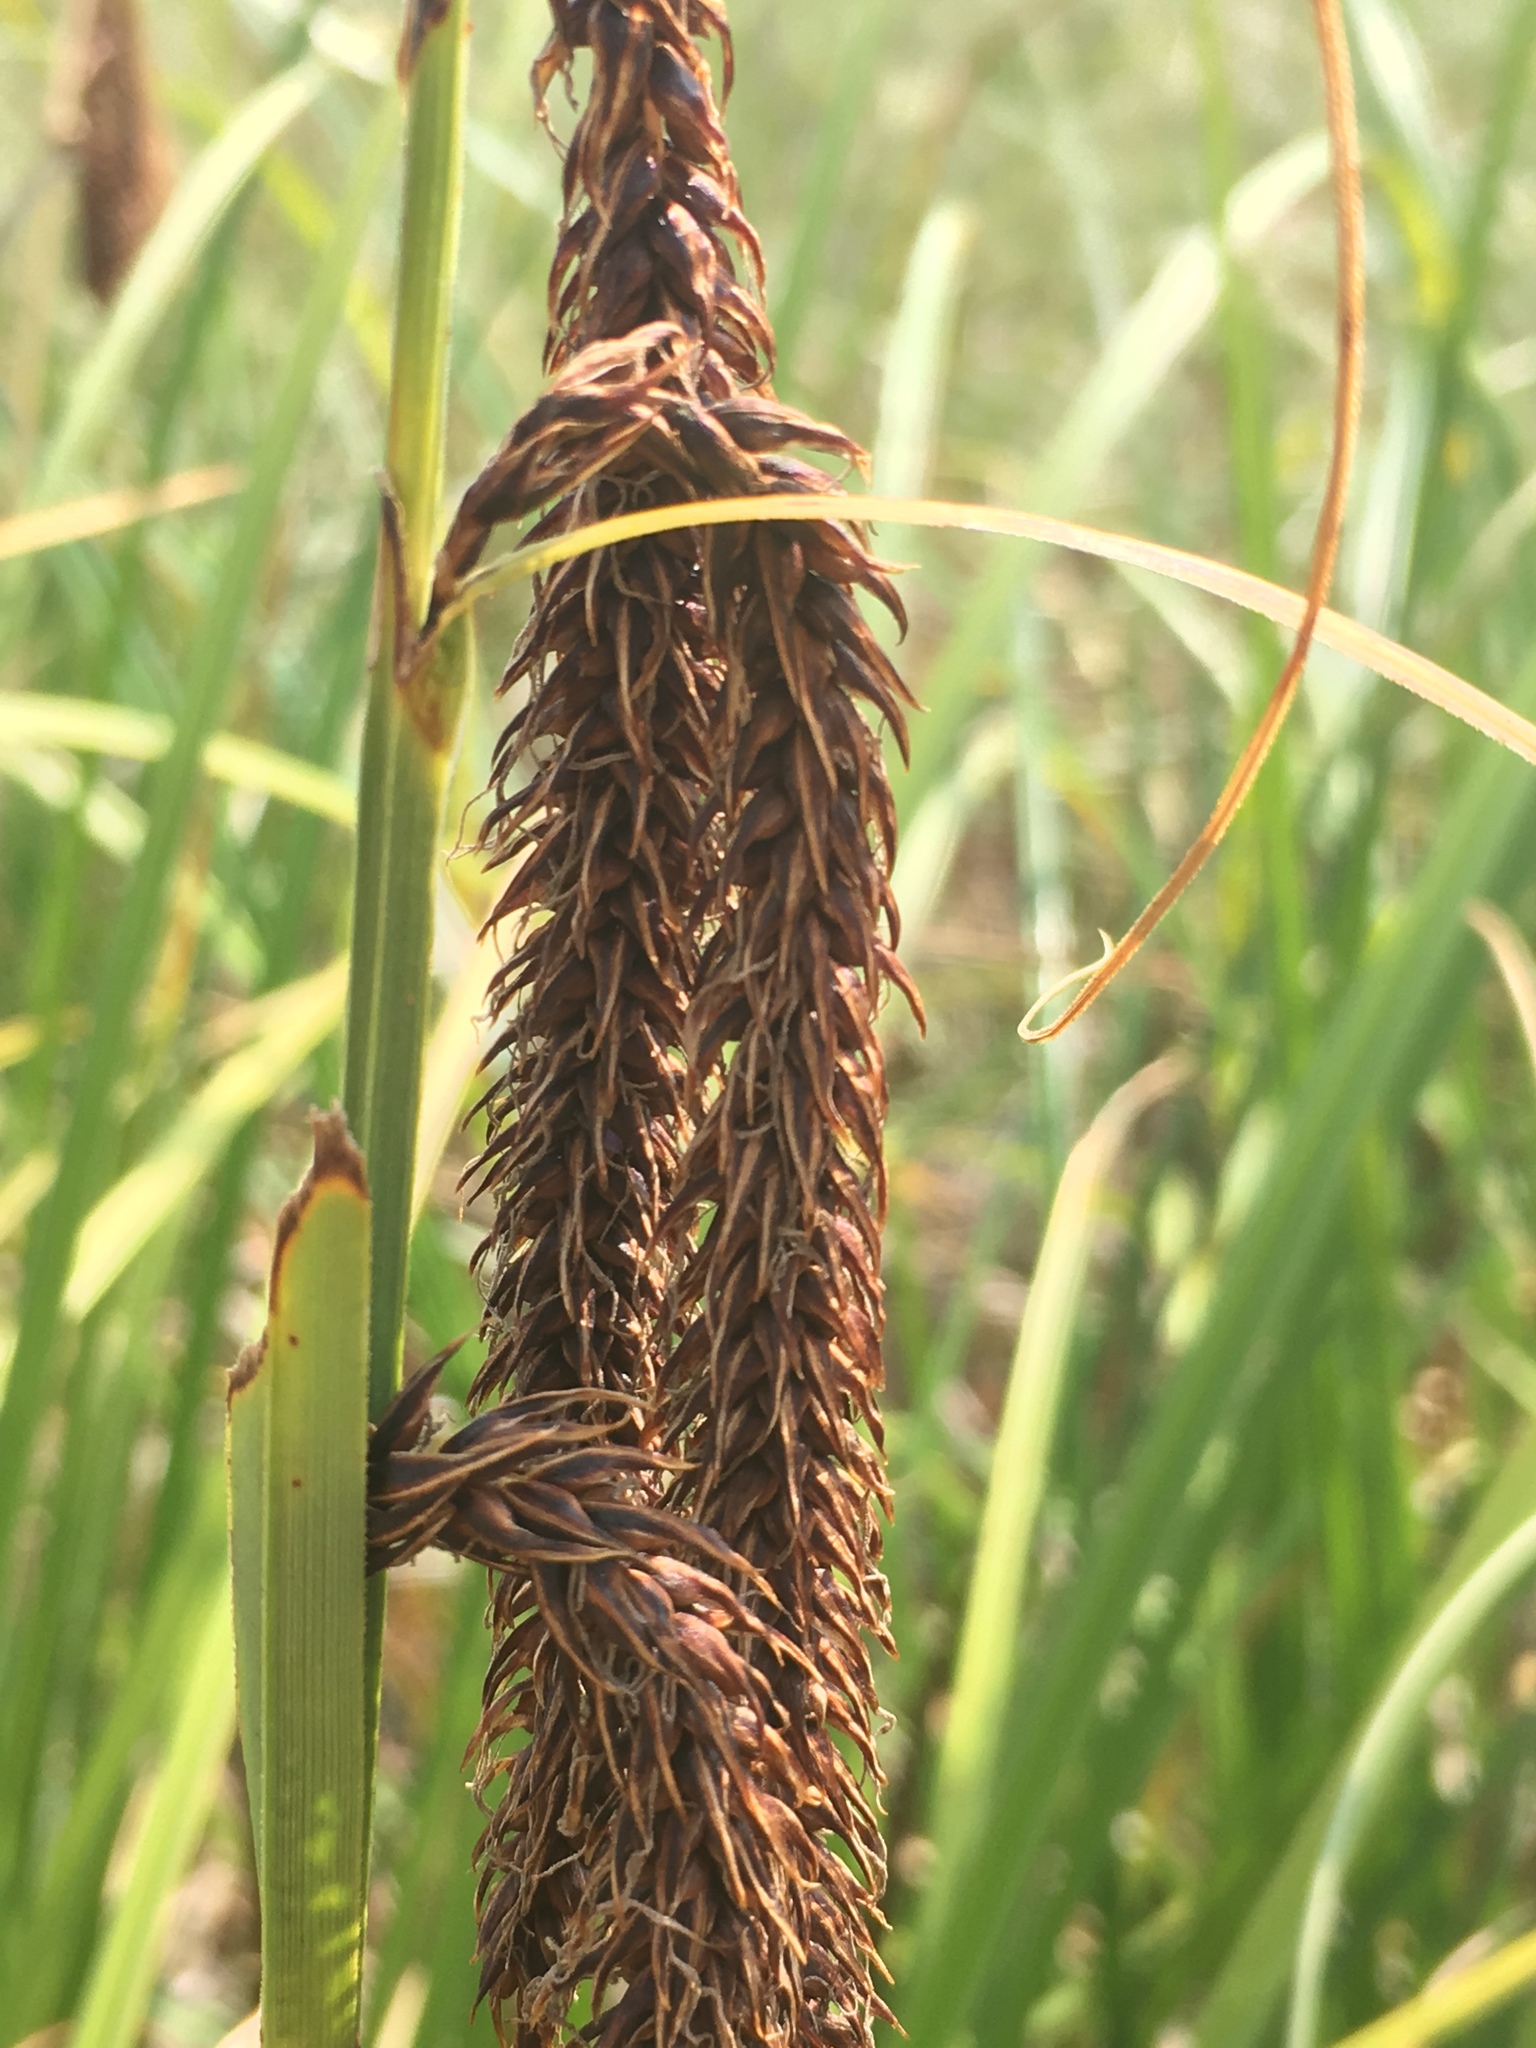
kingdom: Plantae
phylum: Tracheophyta
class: Liliopsida
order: Poales
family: Cyperaceae
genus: Carex
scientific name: Carex obnupta
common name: Slough sedge
